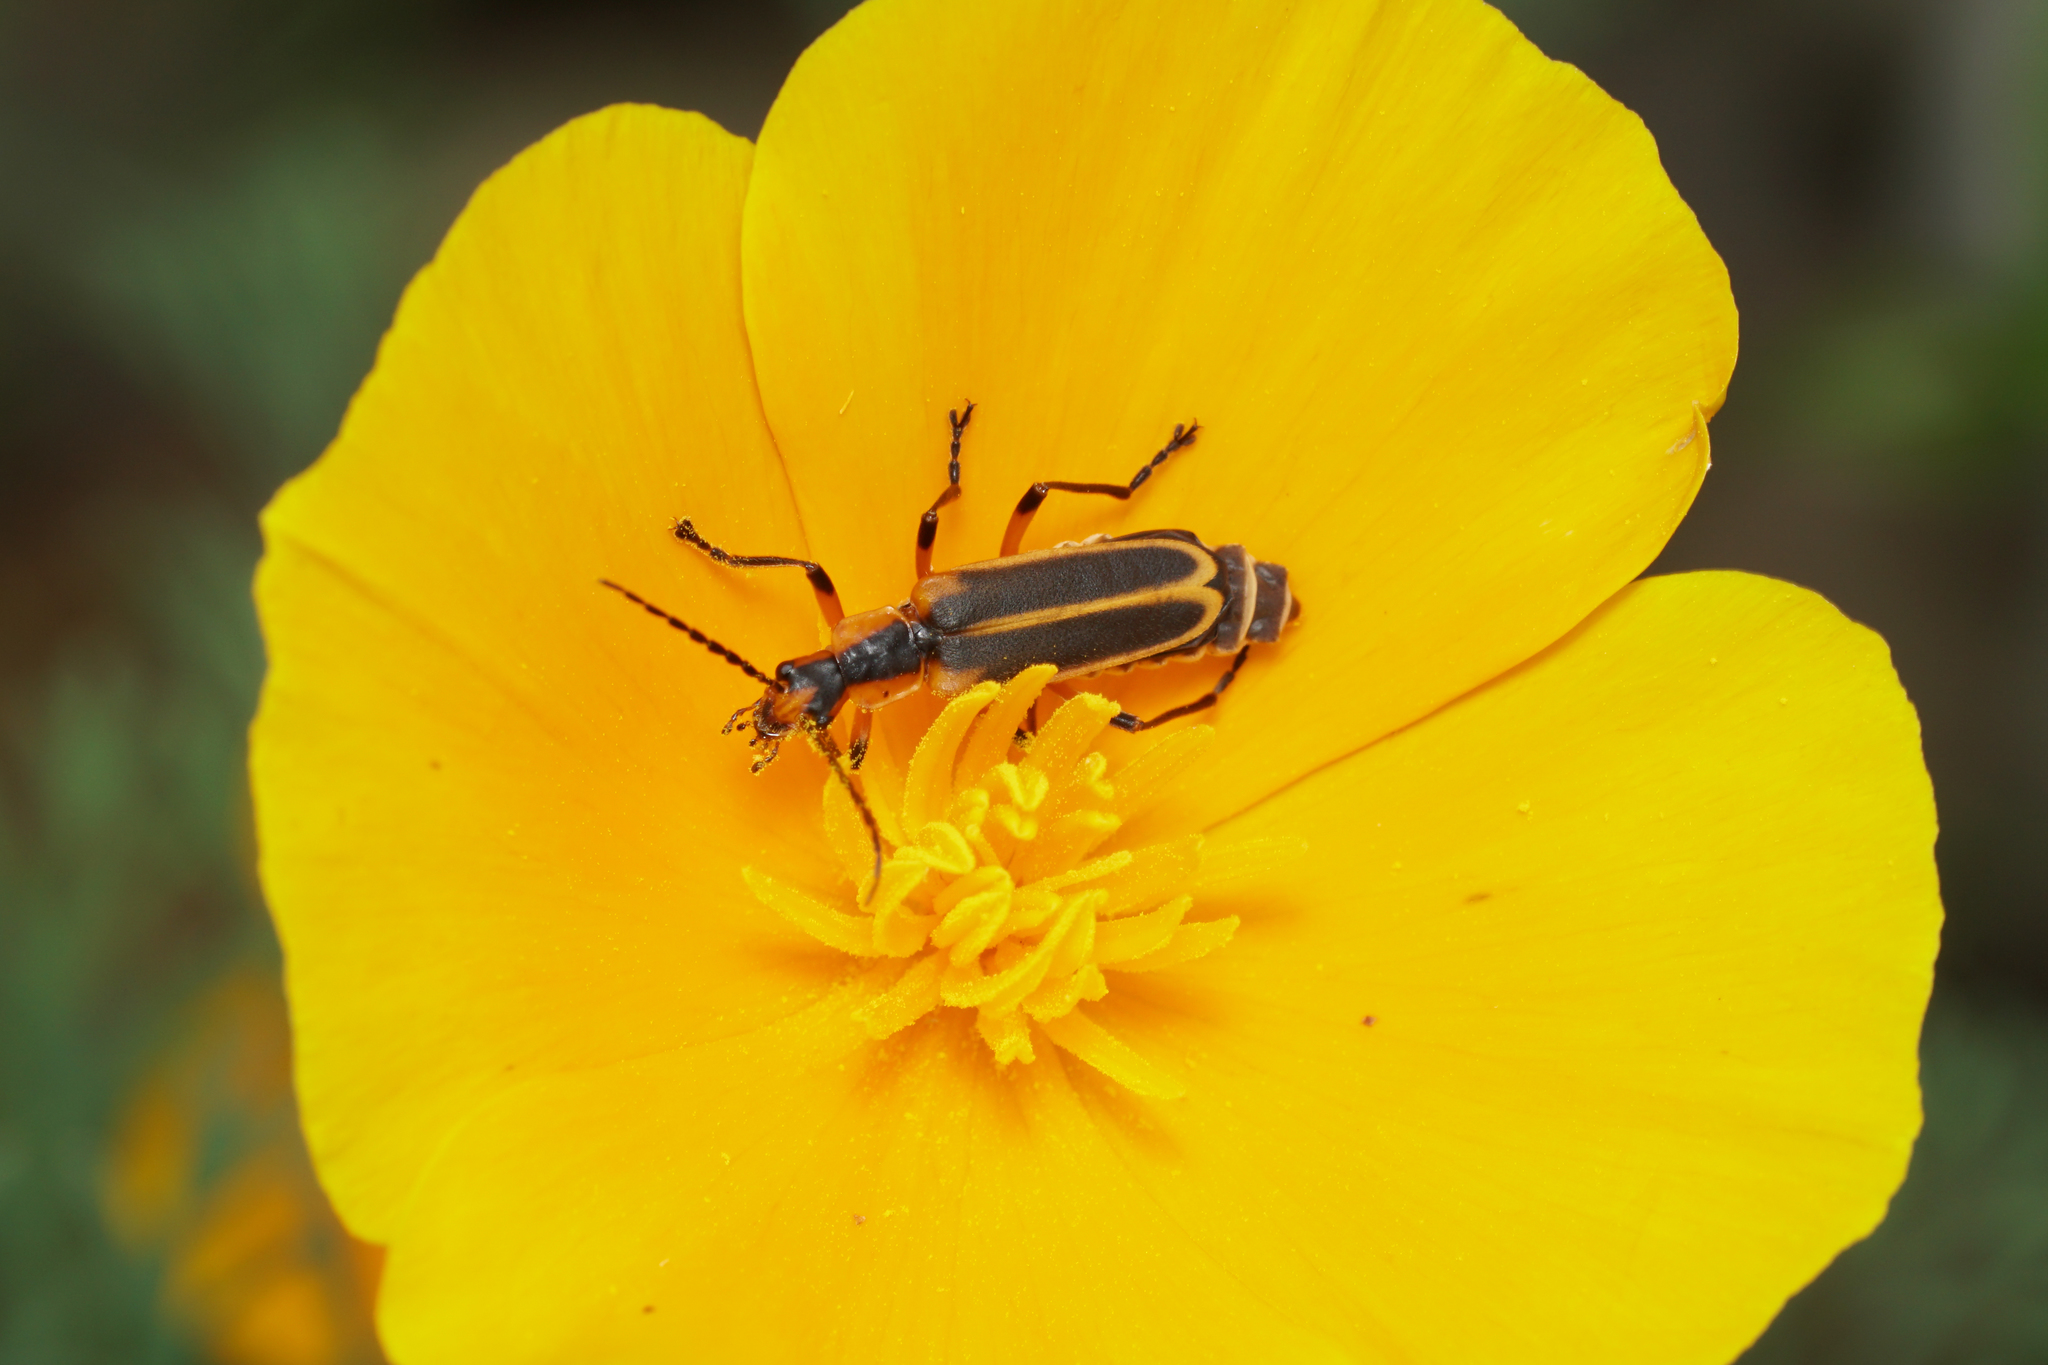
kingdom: Animalia
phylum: Arthropoda
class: Insecta
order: Coleoptera
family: Cantharidae
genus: Chauliognathus
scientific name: Chauliognathus marginatus
